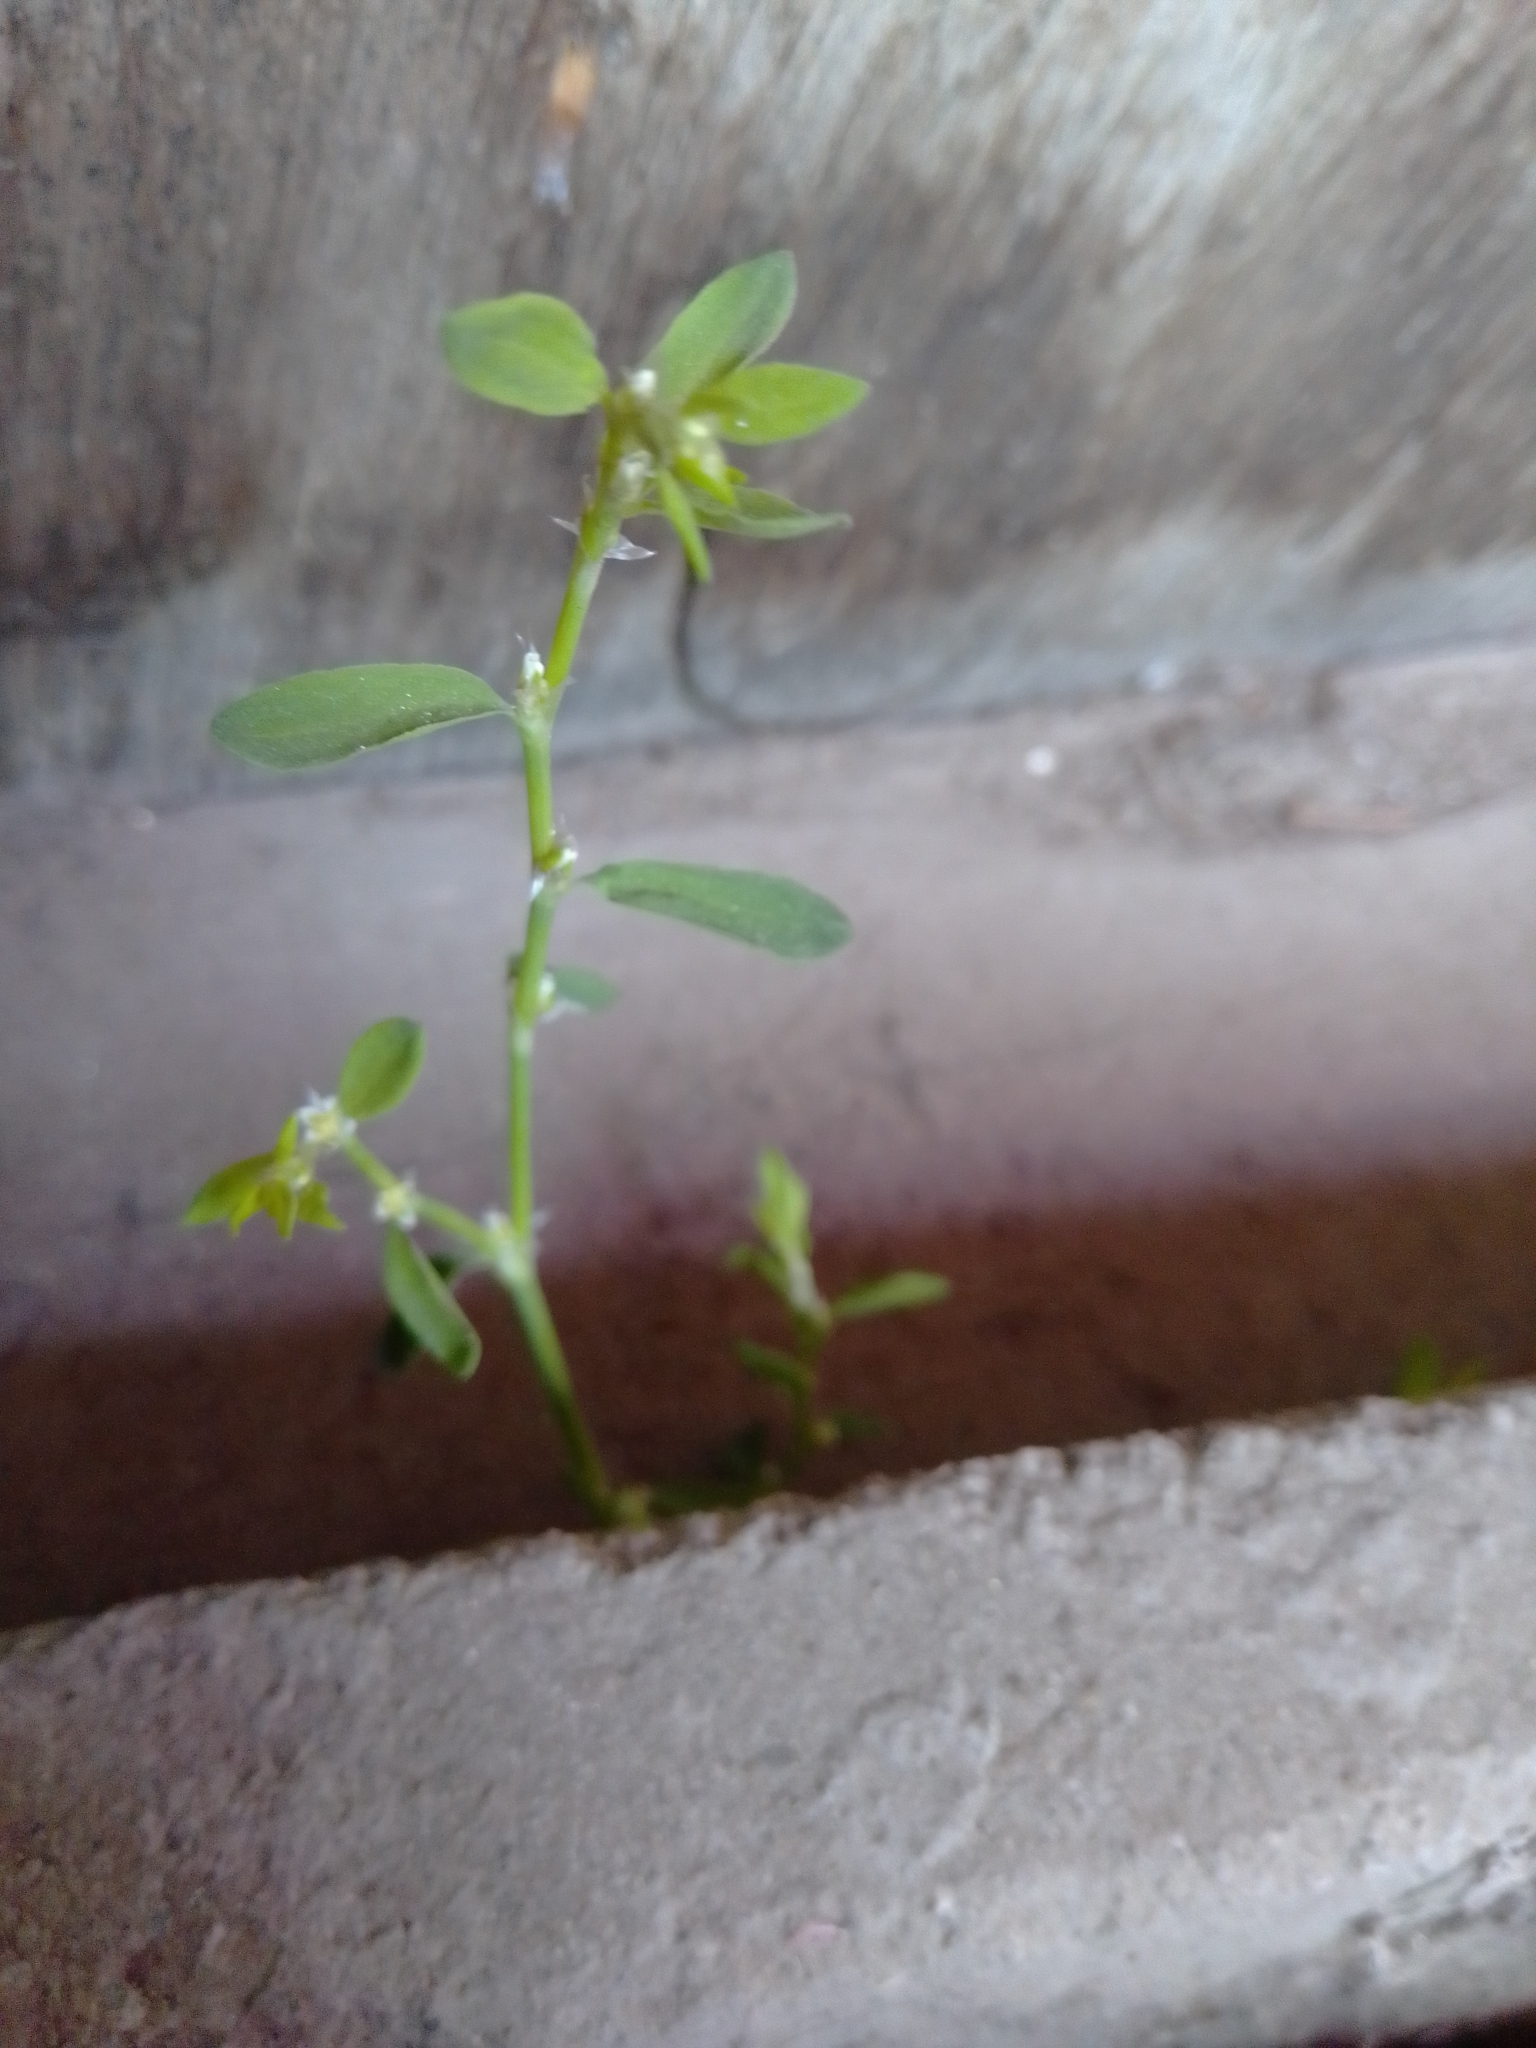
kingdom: Plantae
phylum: Tracheophyta
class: Magnoliopsida
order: Caryophyllales
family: Polygonaceae
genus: Polygonum
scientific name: Polygonum aviculare
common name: Prostrate knotweed
